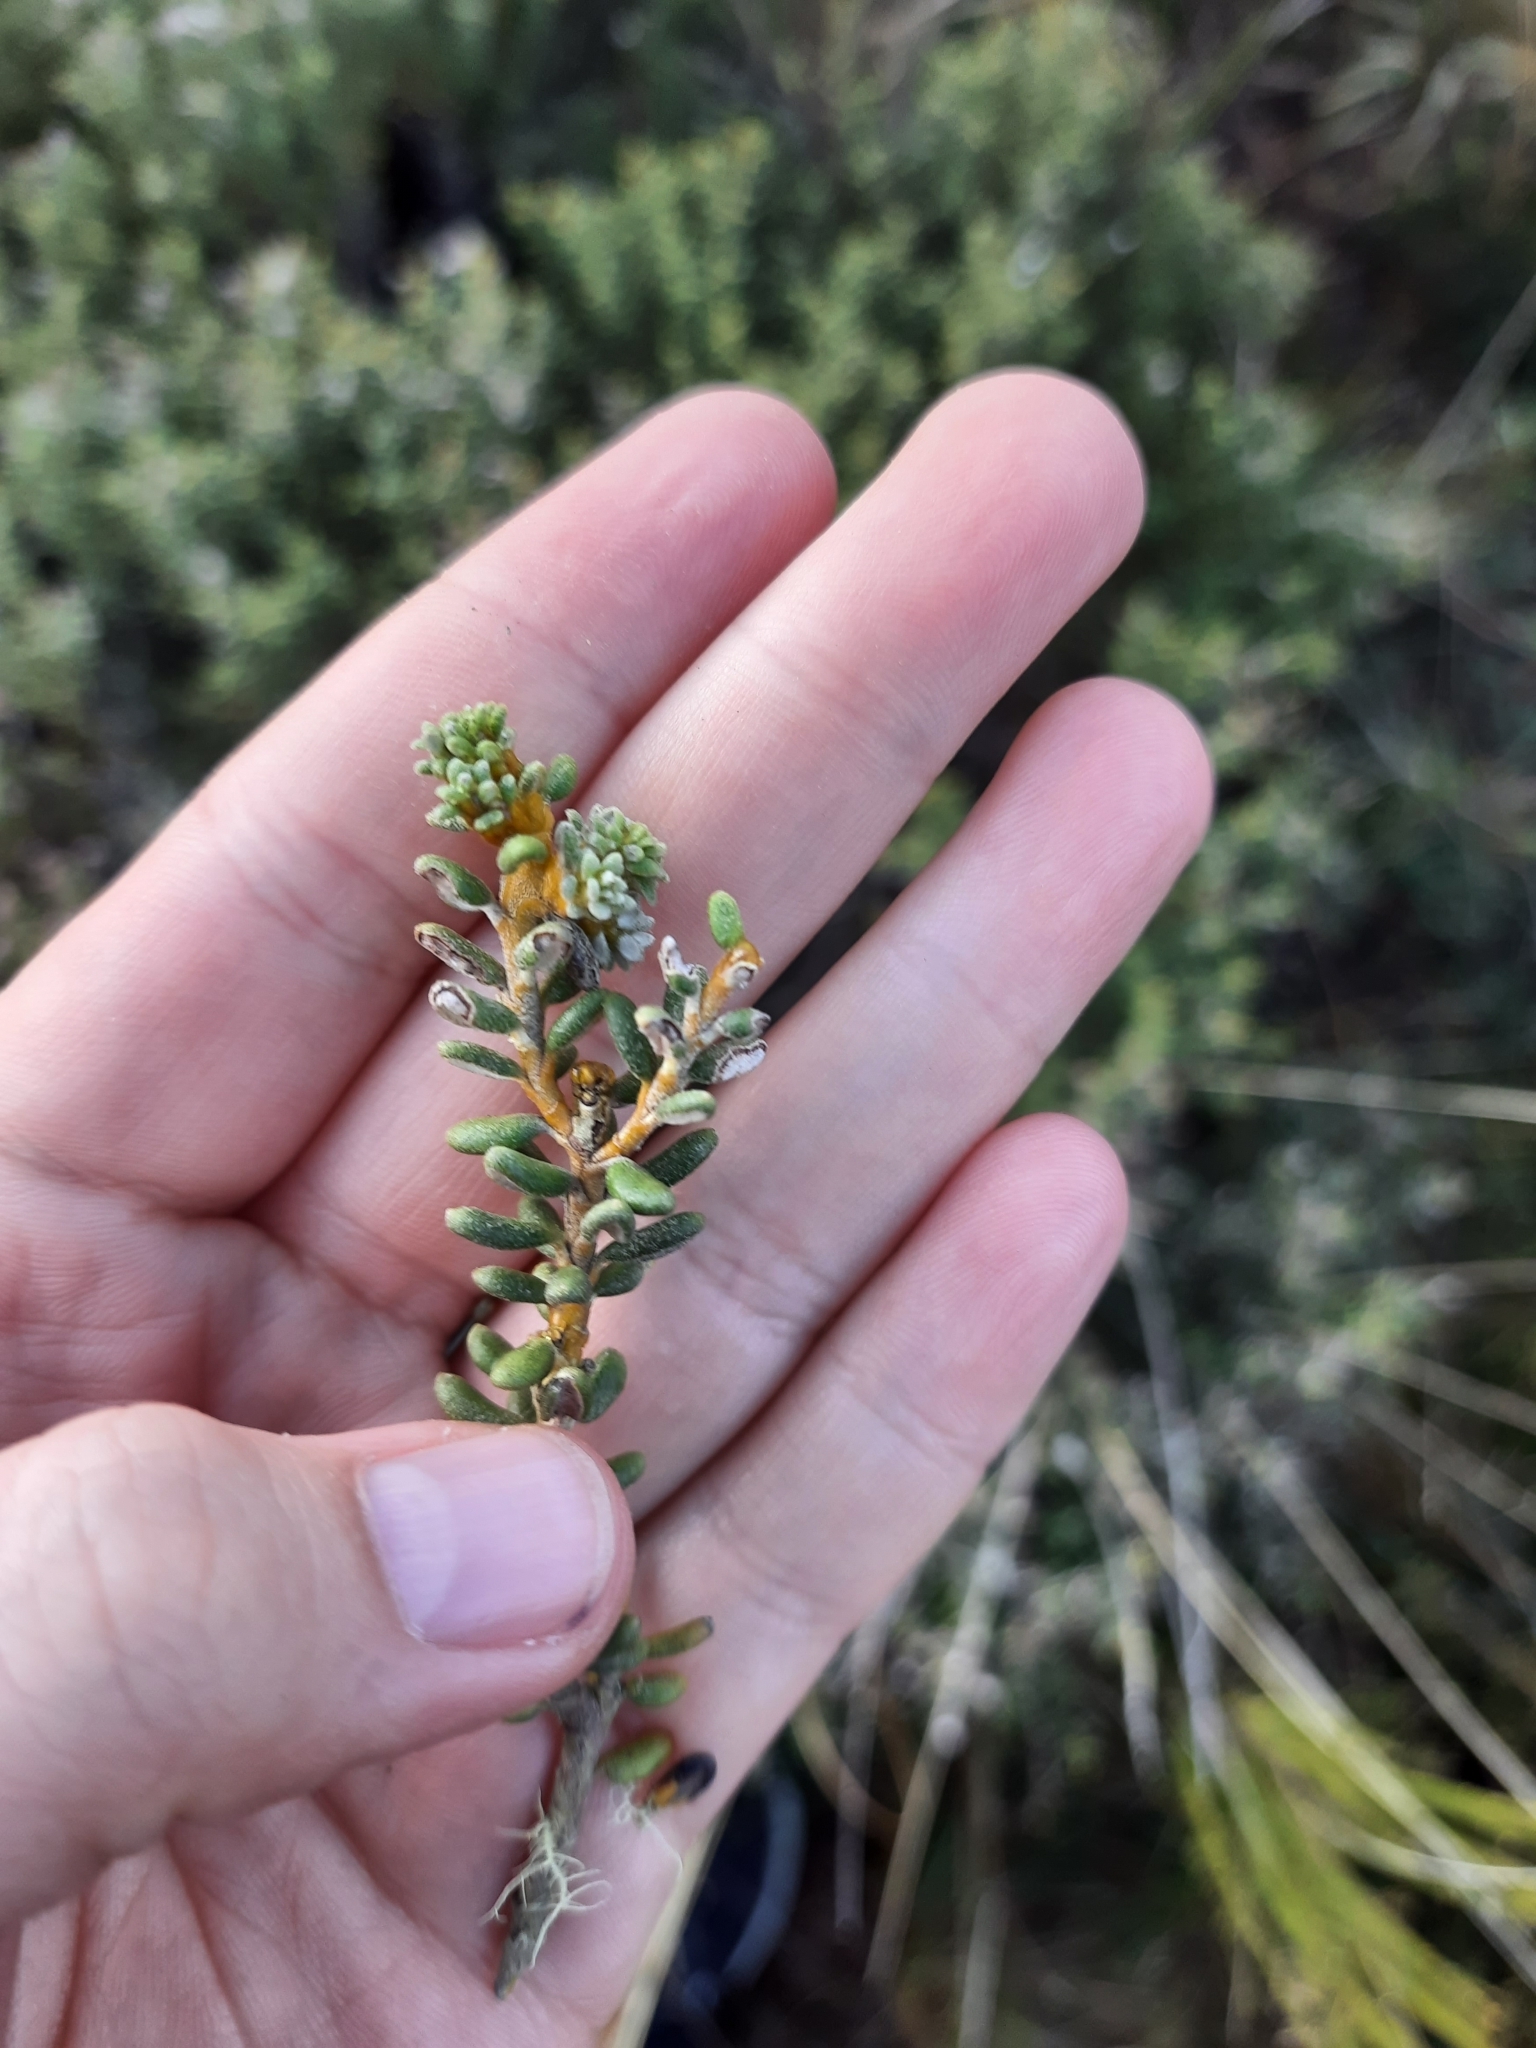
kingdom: Plantae
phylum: Tracheophyta
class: Magnoliopsida
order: Asterales
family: Asteraceae
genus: Olearia
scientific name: Olearia cymbifolia
